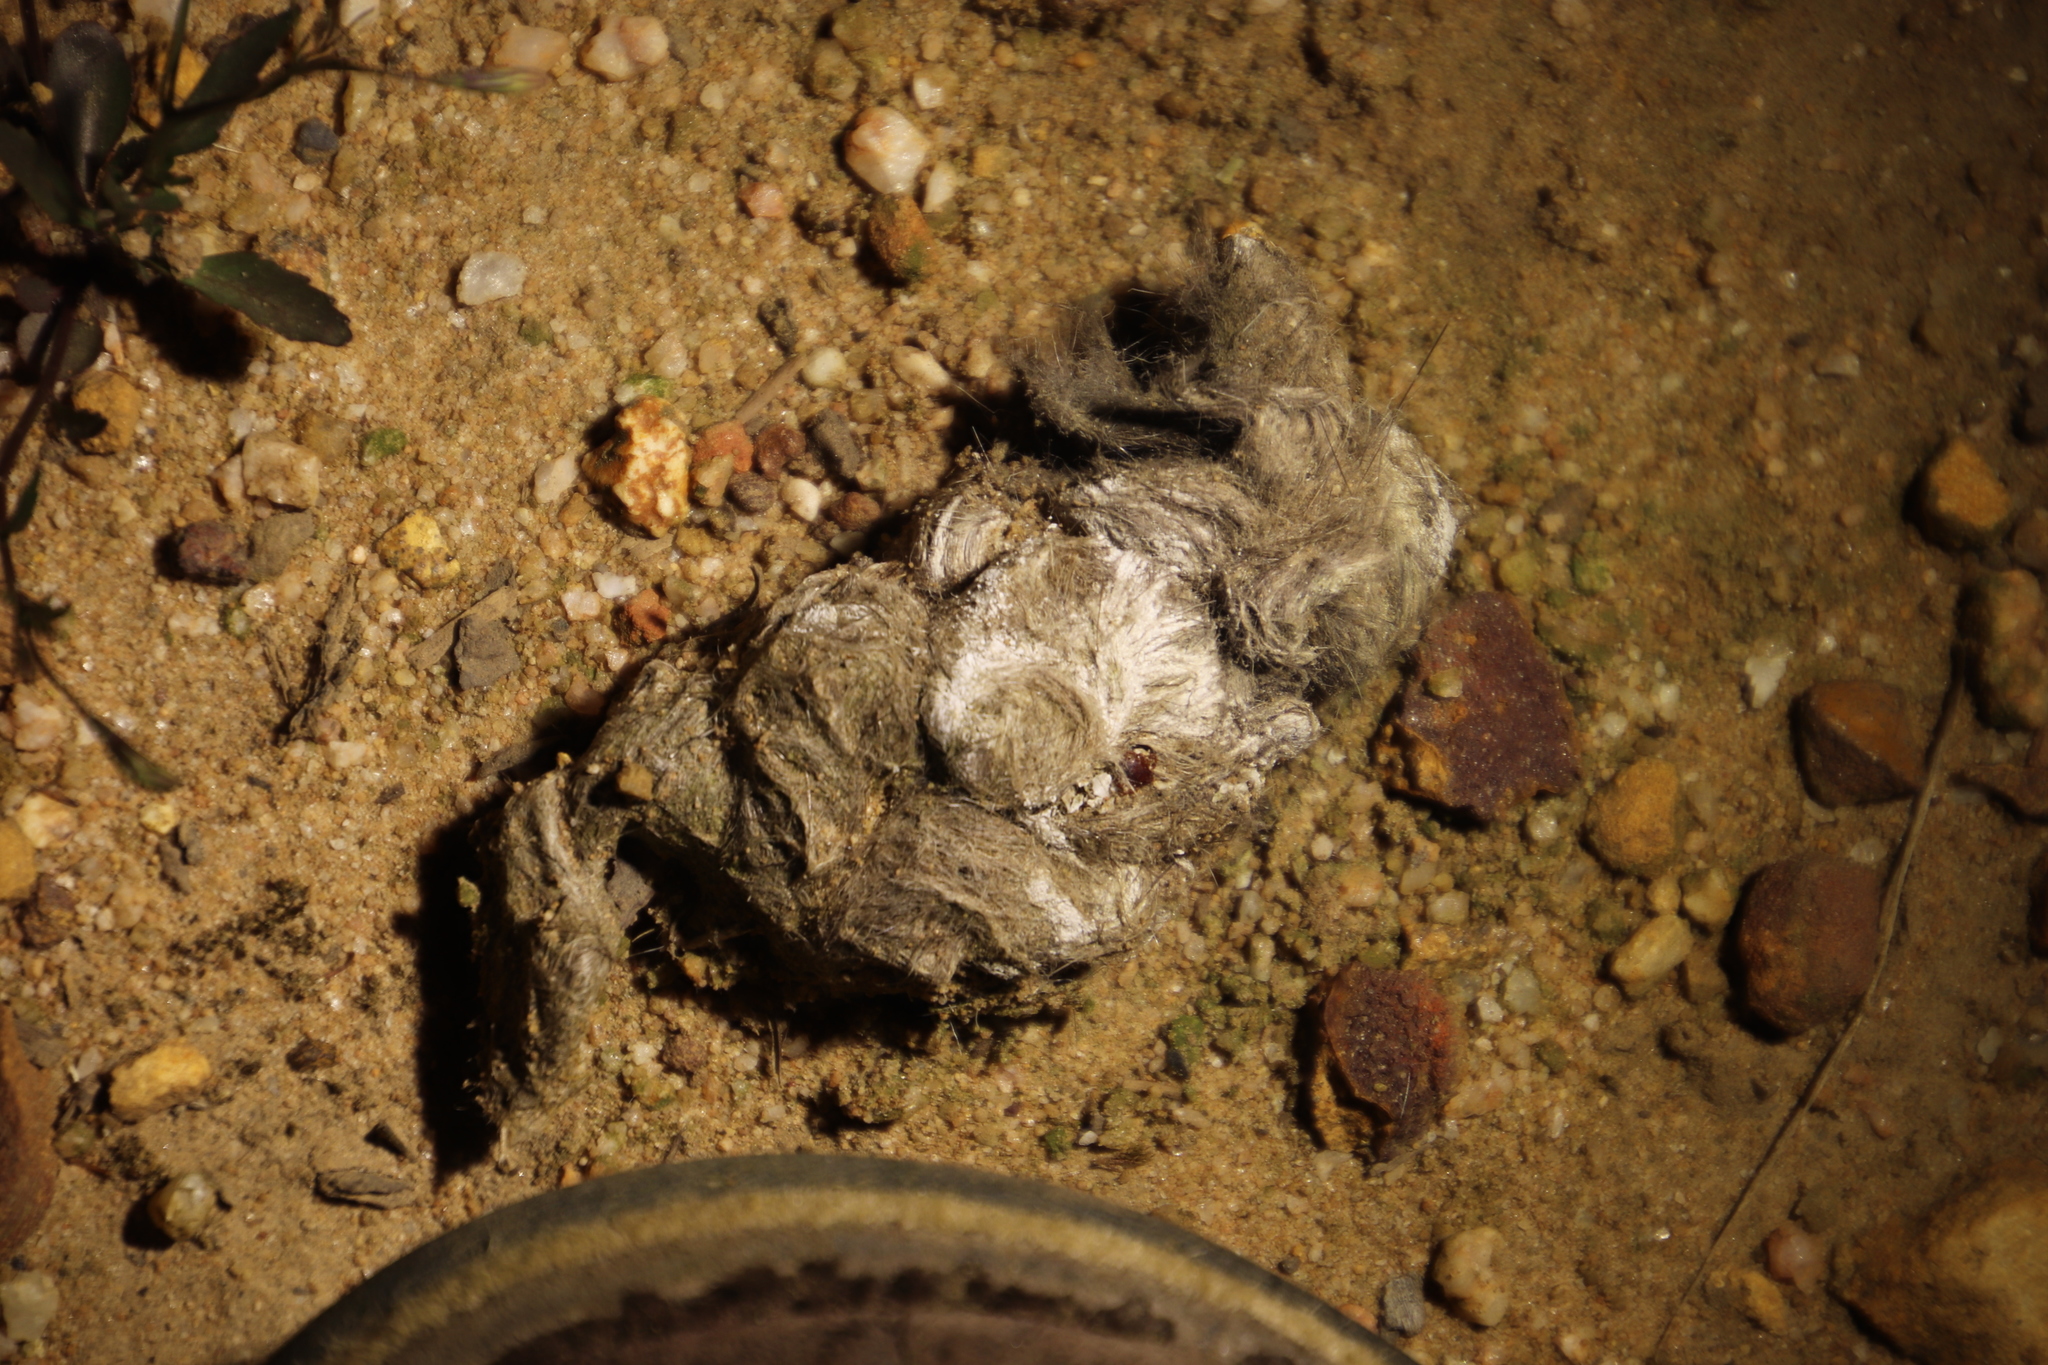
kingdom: Animalia
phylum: Chordata
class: Mammalia
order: Carnivora
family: Felidae
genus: Caracal
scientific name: Caracal caracal
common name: Caracal
